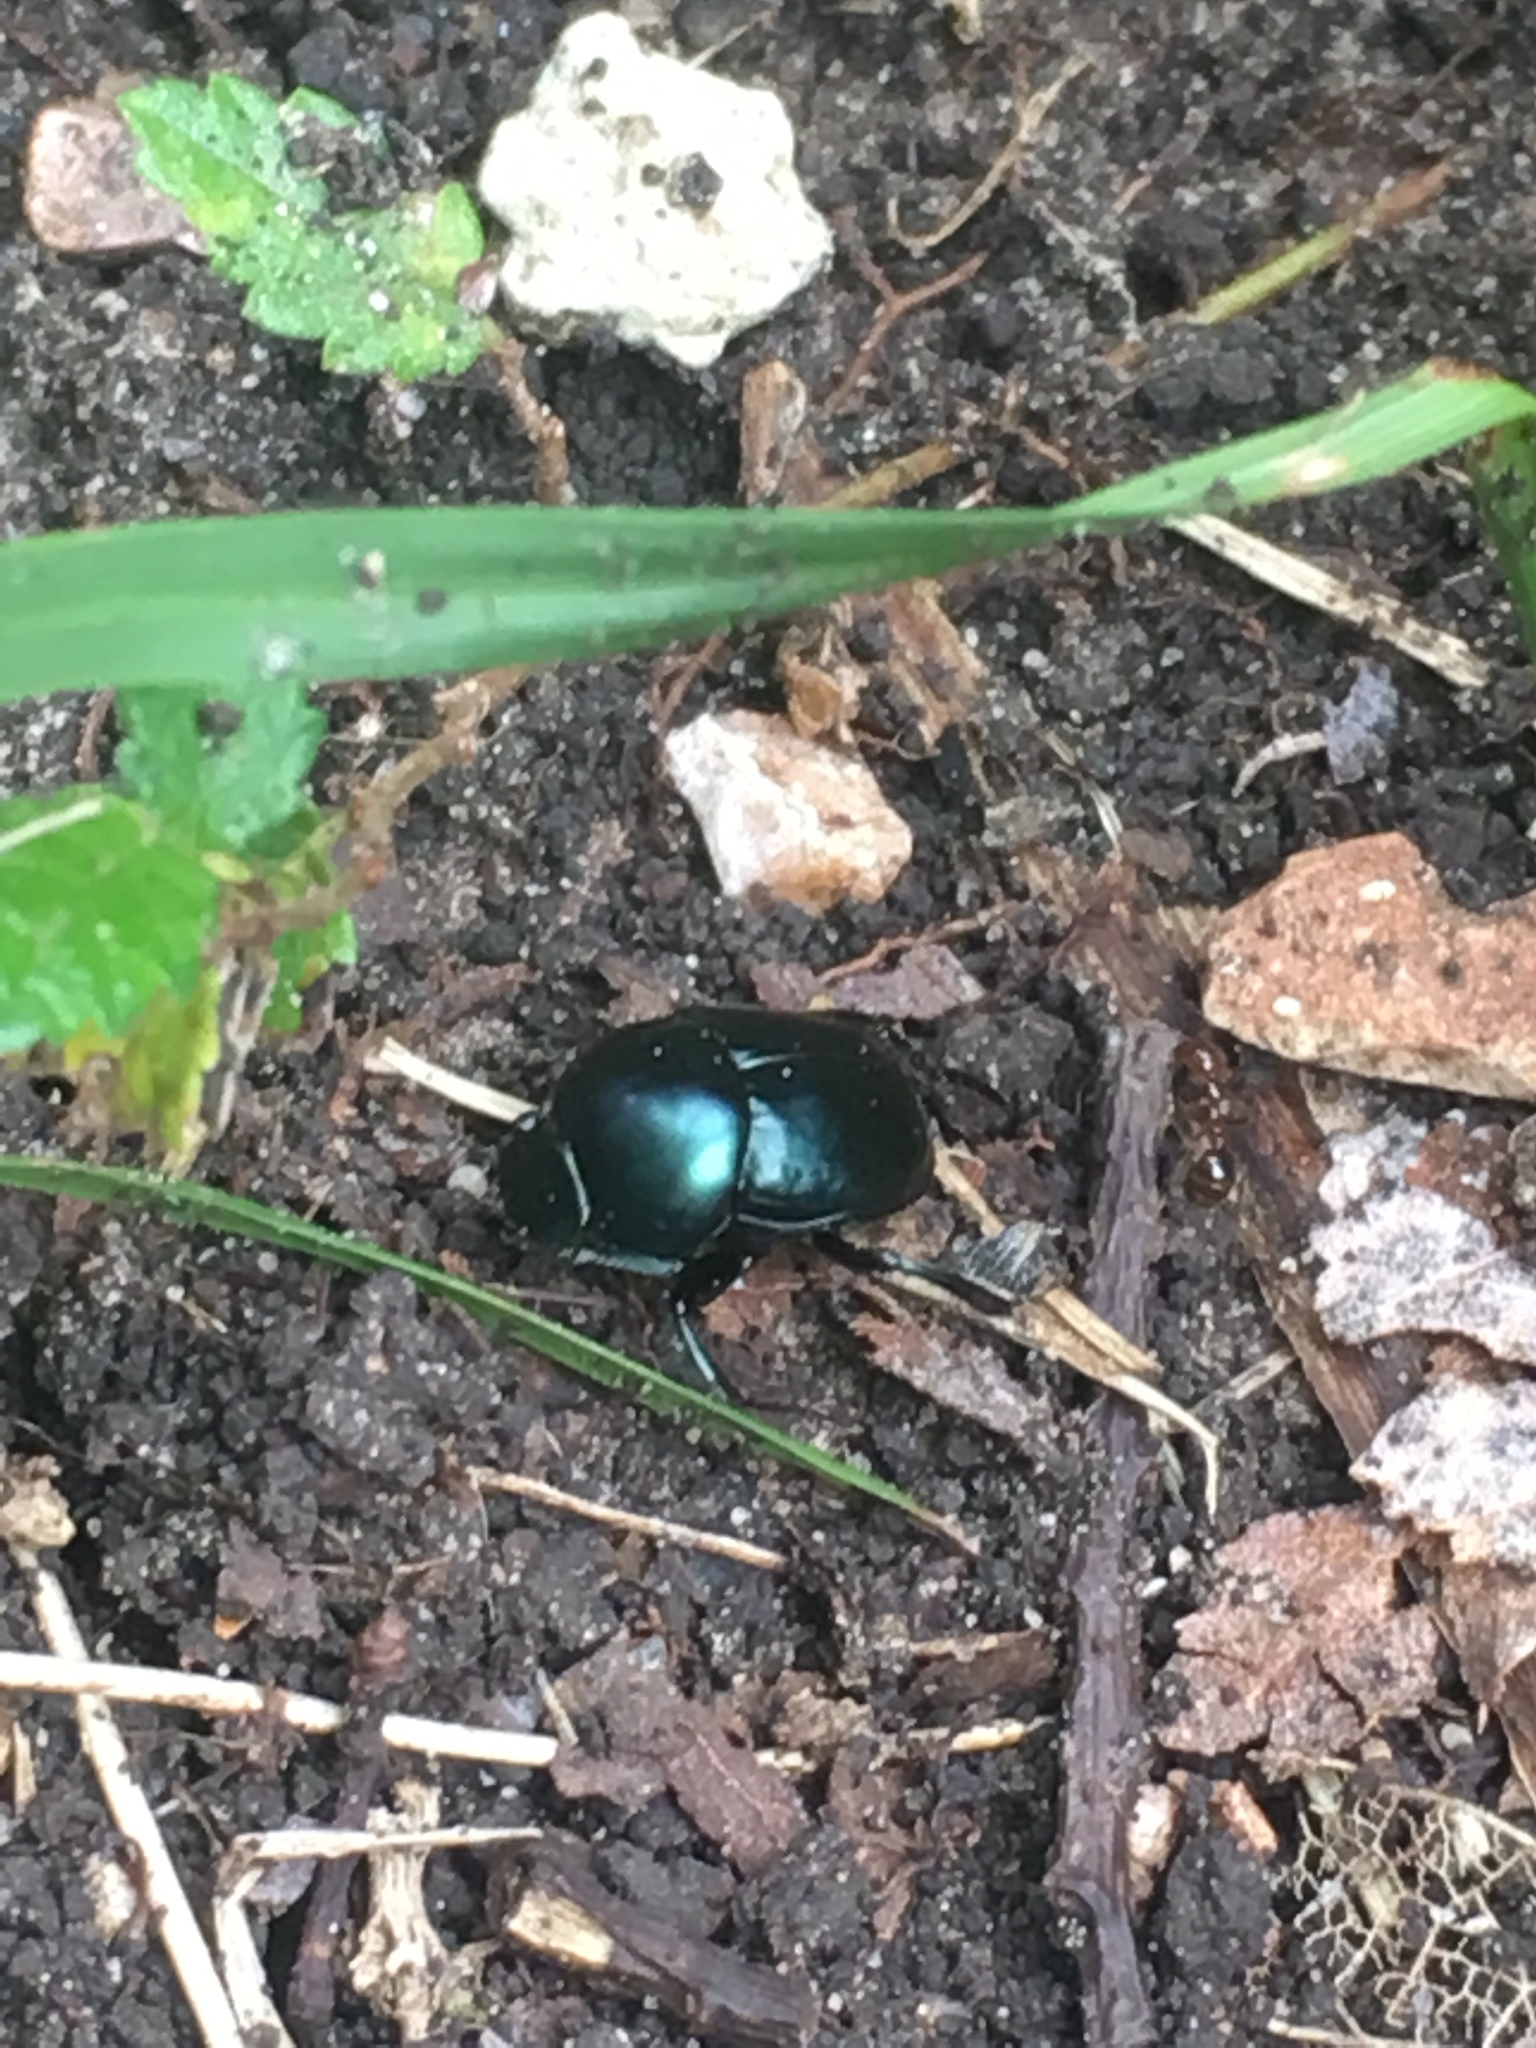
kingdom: Animalia
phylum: Arthropoda
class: Insecta
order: Coleoptera
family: Scarabaeidae
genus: Canthon
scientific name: Canthon cyanellus
